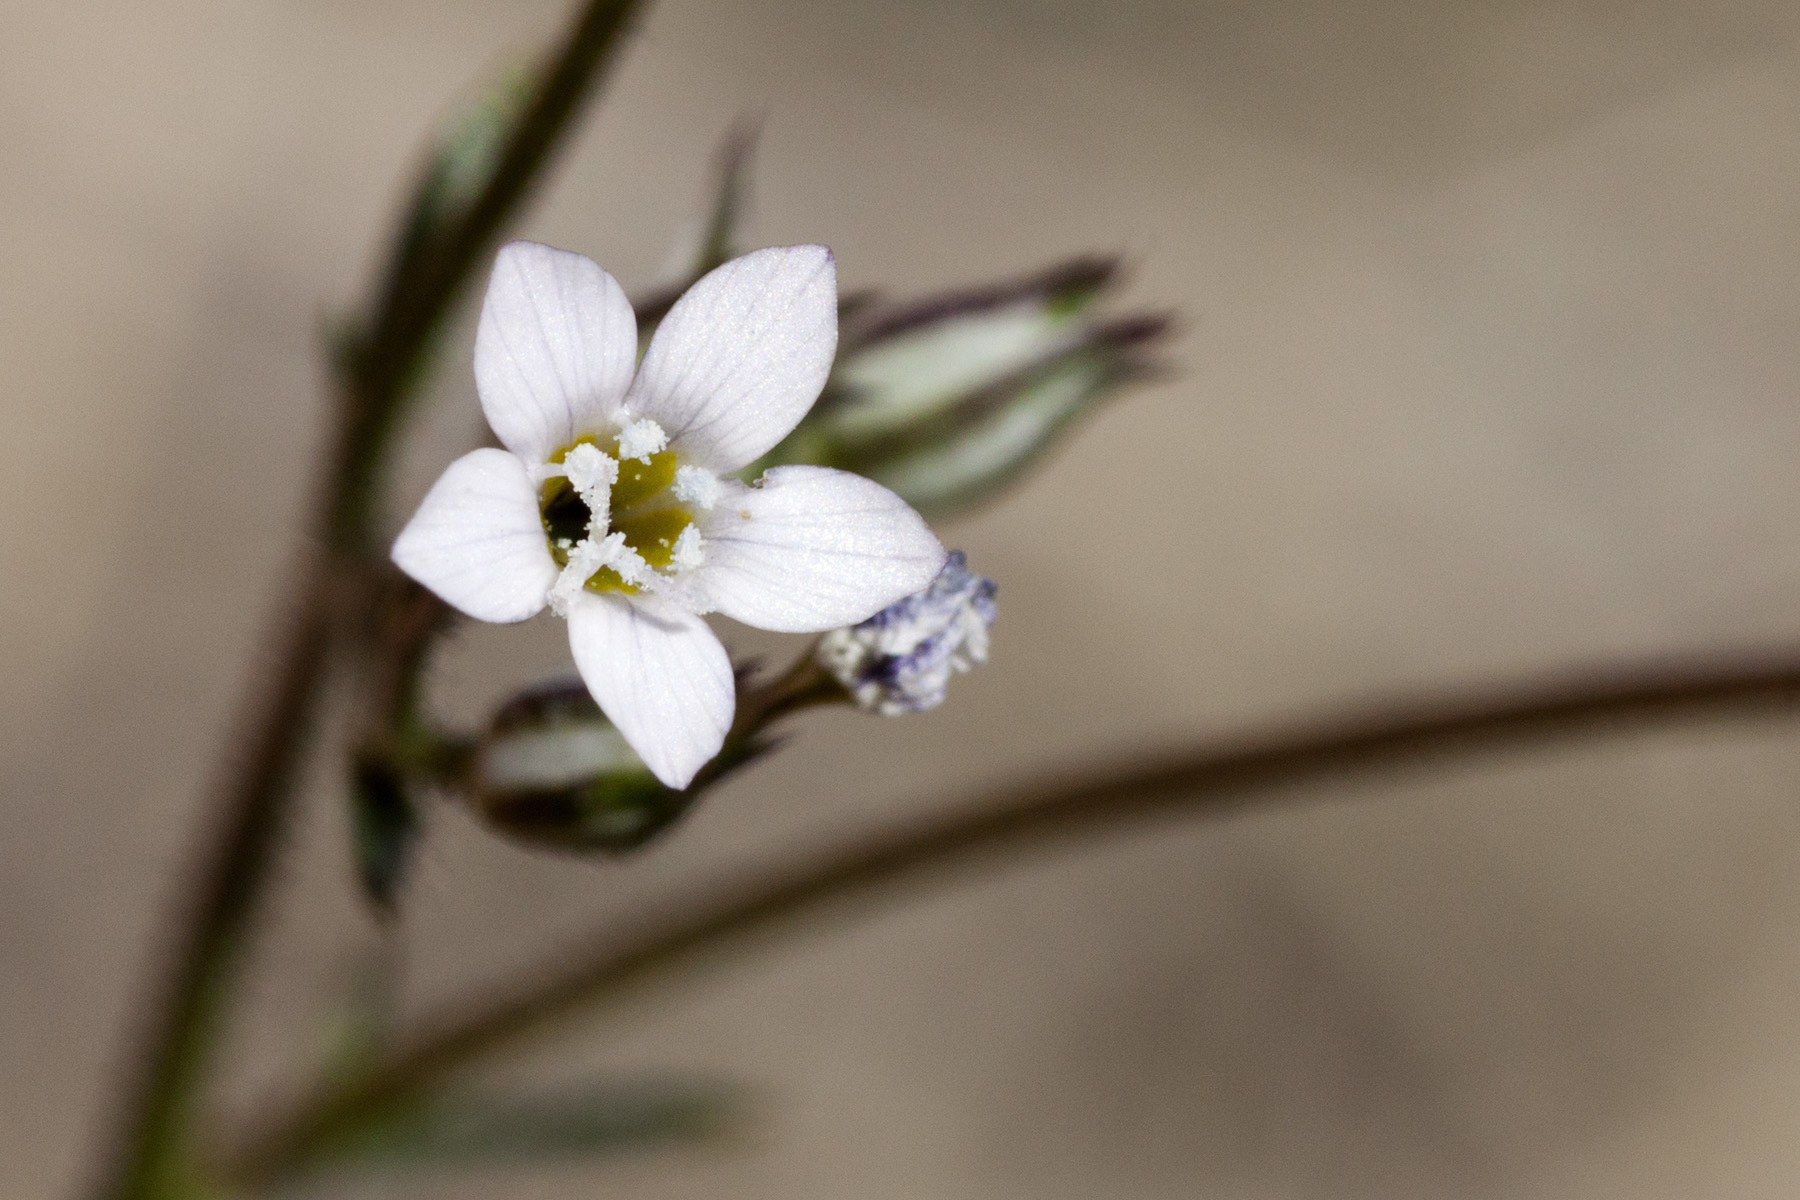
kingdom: Plantae
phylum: Tracheophyta
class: Magnoliopsida
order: Ericales
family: Polemoniaceae
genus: Gilia
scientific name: Gilia mexicana
